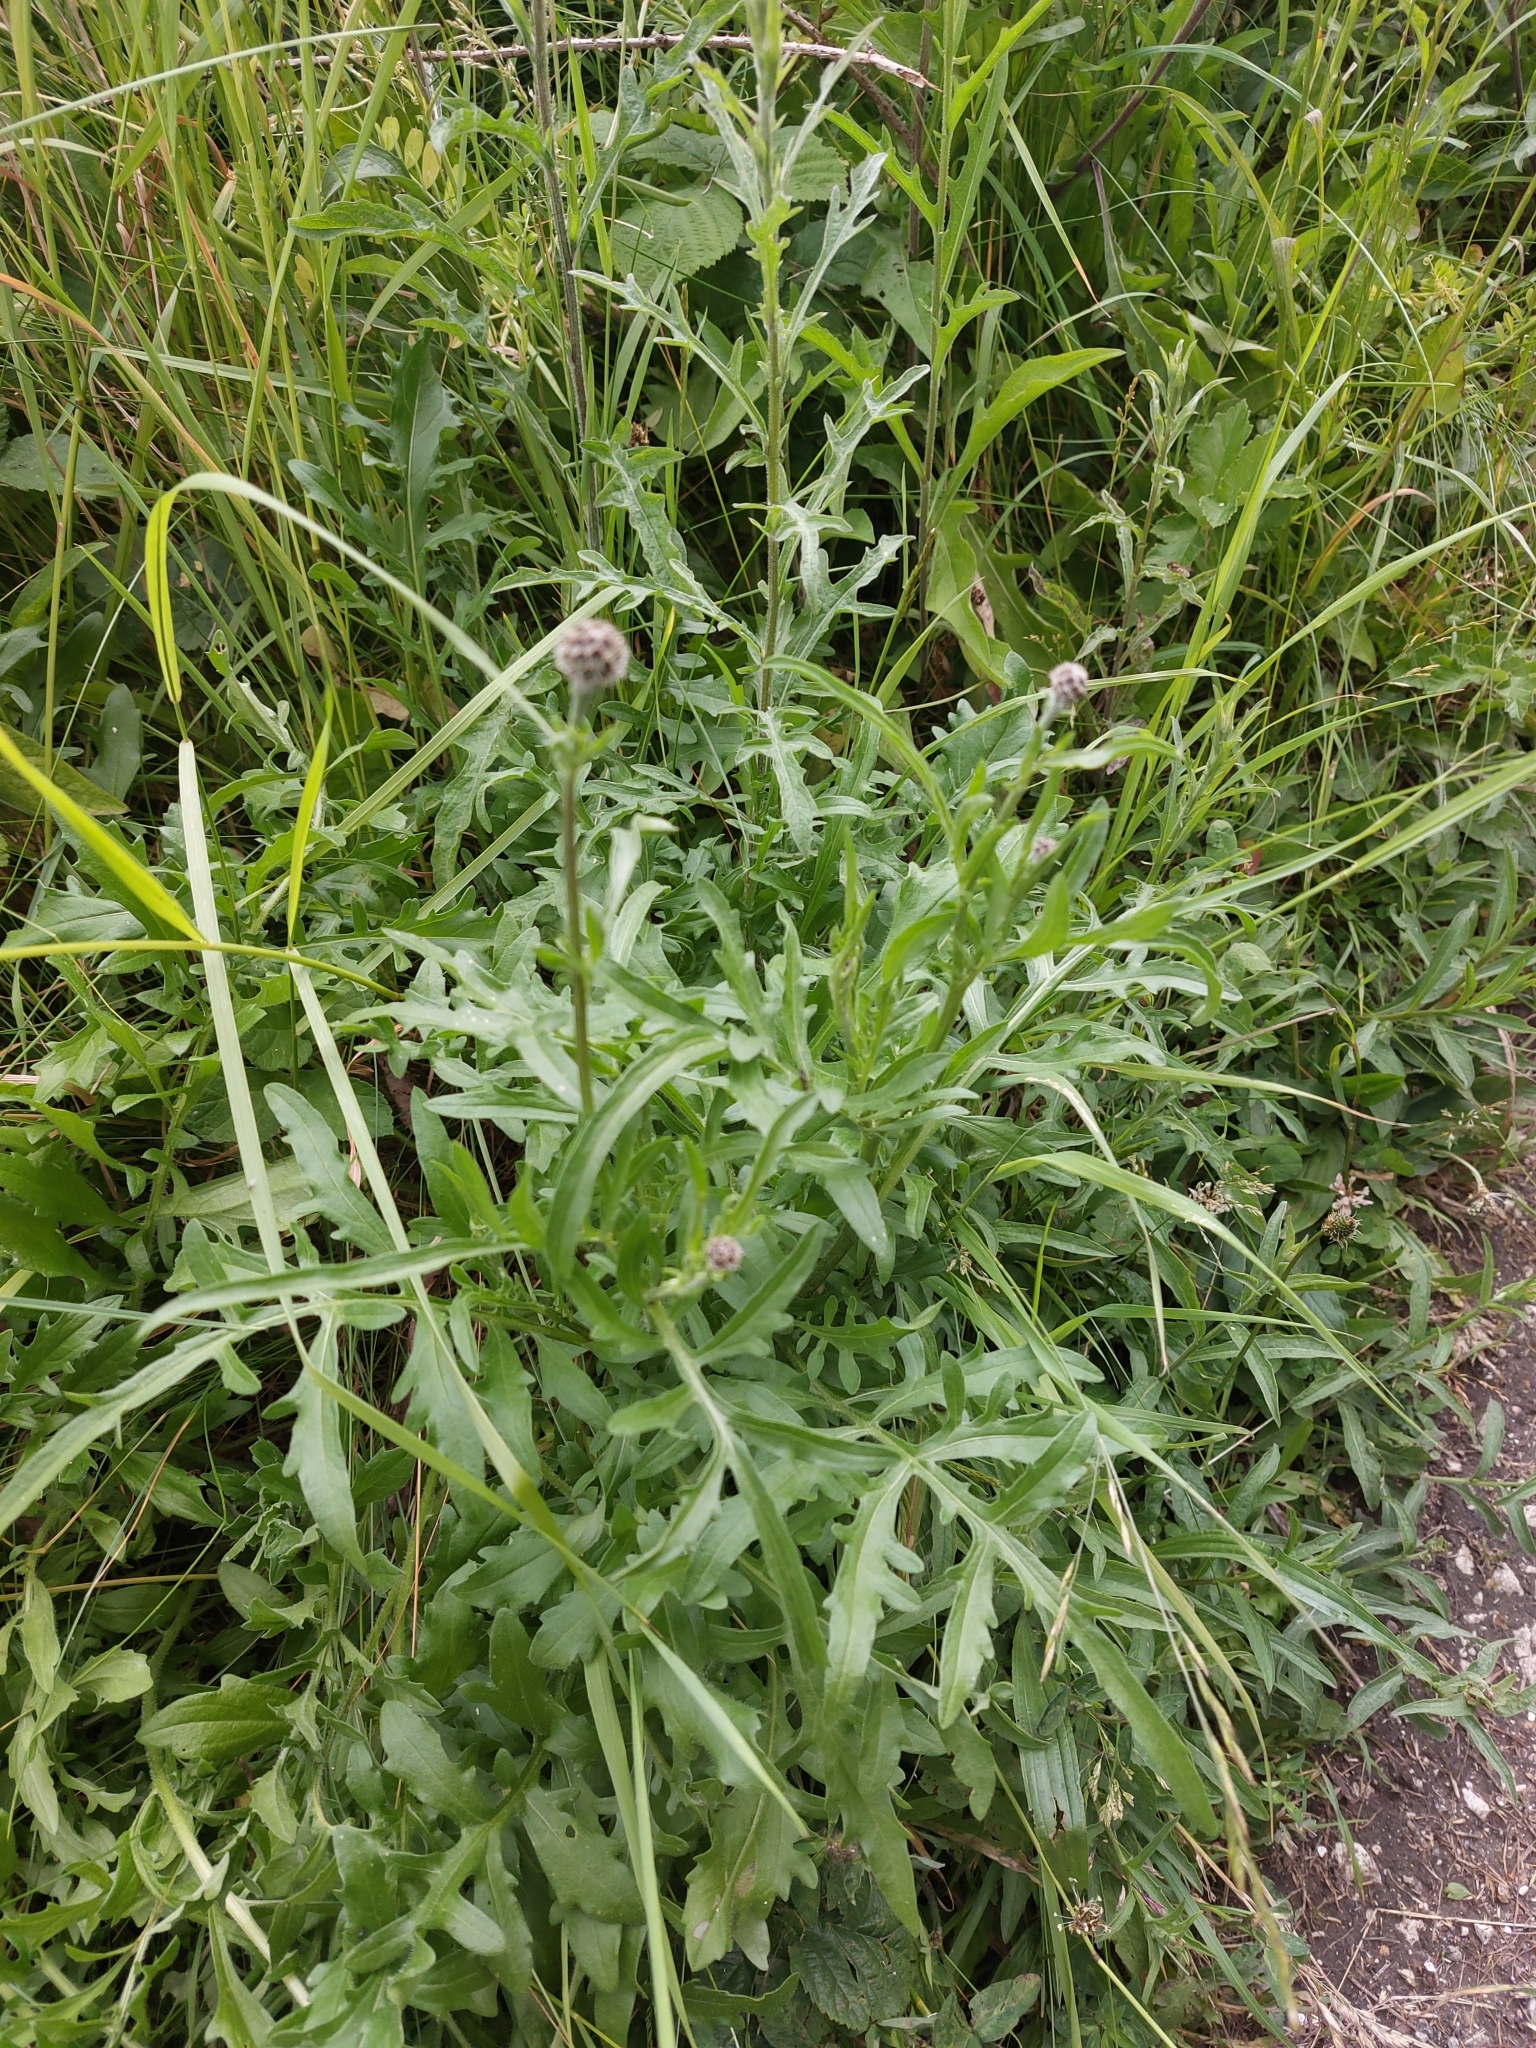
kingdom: Plantae
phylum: Tracheophyta
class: Magnoliopsida
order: Asterales
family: Asteraceae
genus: Centaurea
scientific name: Centaurea scabiosa
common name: Greater knapweed
